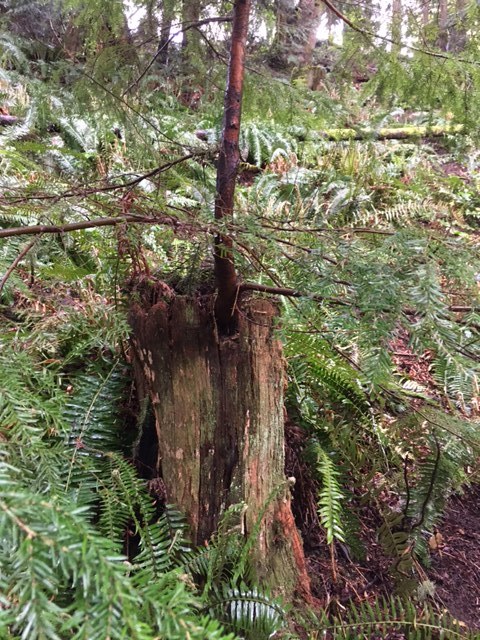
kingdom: Plantae
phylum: Tracheophyta
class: Pinopsida
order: Pinales
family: Pinaceae
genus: Tsuga
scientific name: Tsuga heterophylla
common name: Western hemlock
